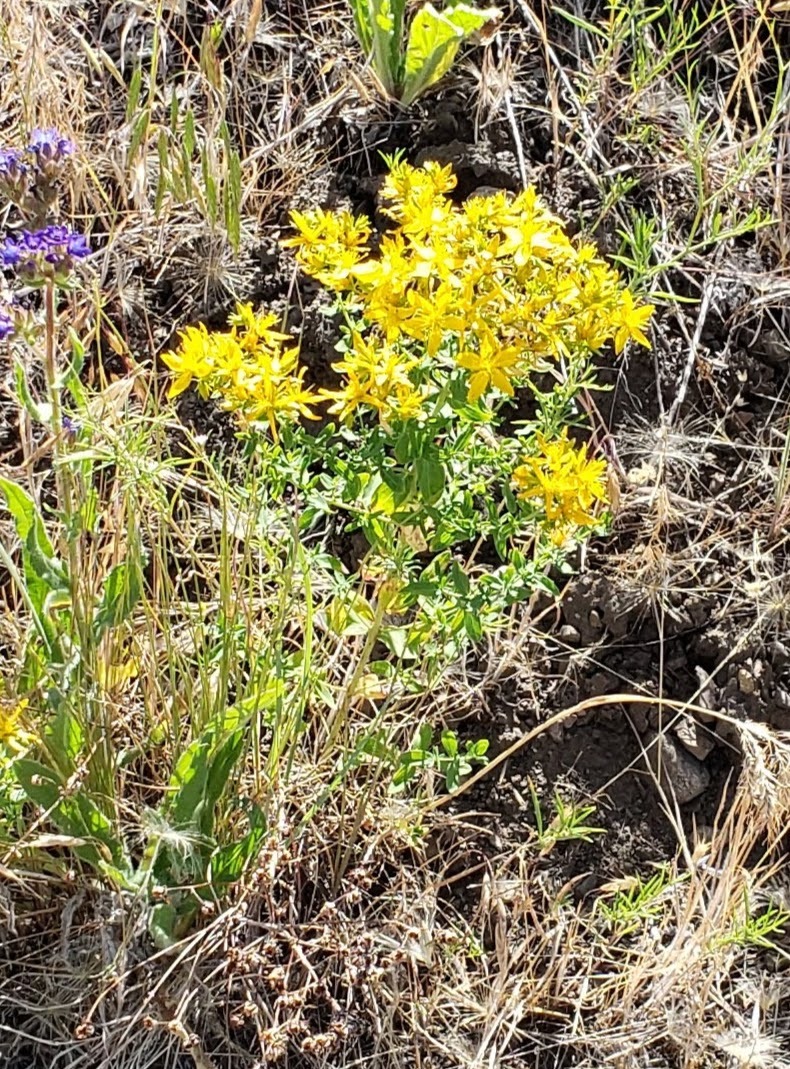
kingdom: Plantae
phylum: Tracheophyta
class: Magnoliopsida
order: Malpighiales
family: Hypericaceae
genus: Hypericum
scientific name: Hypericum perforatum
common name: Common st. johnswort
